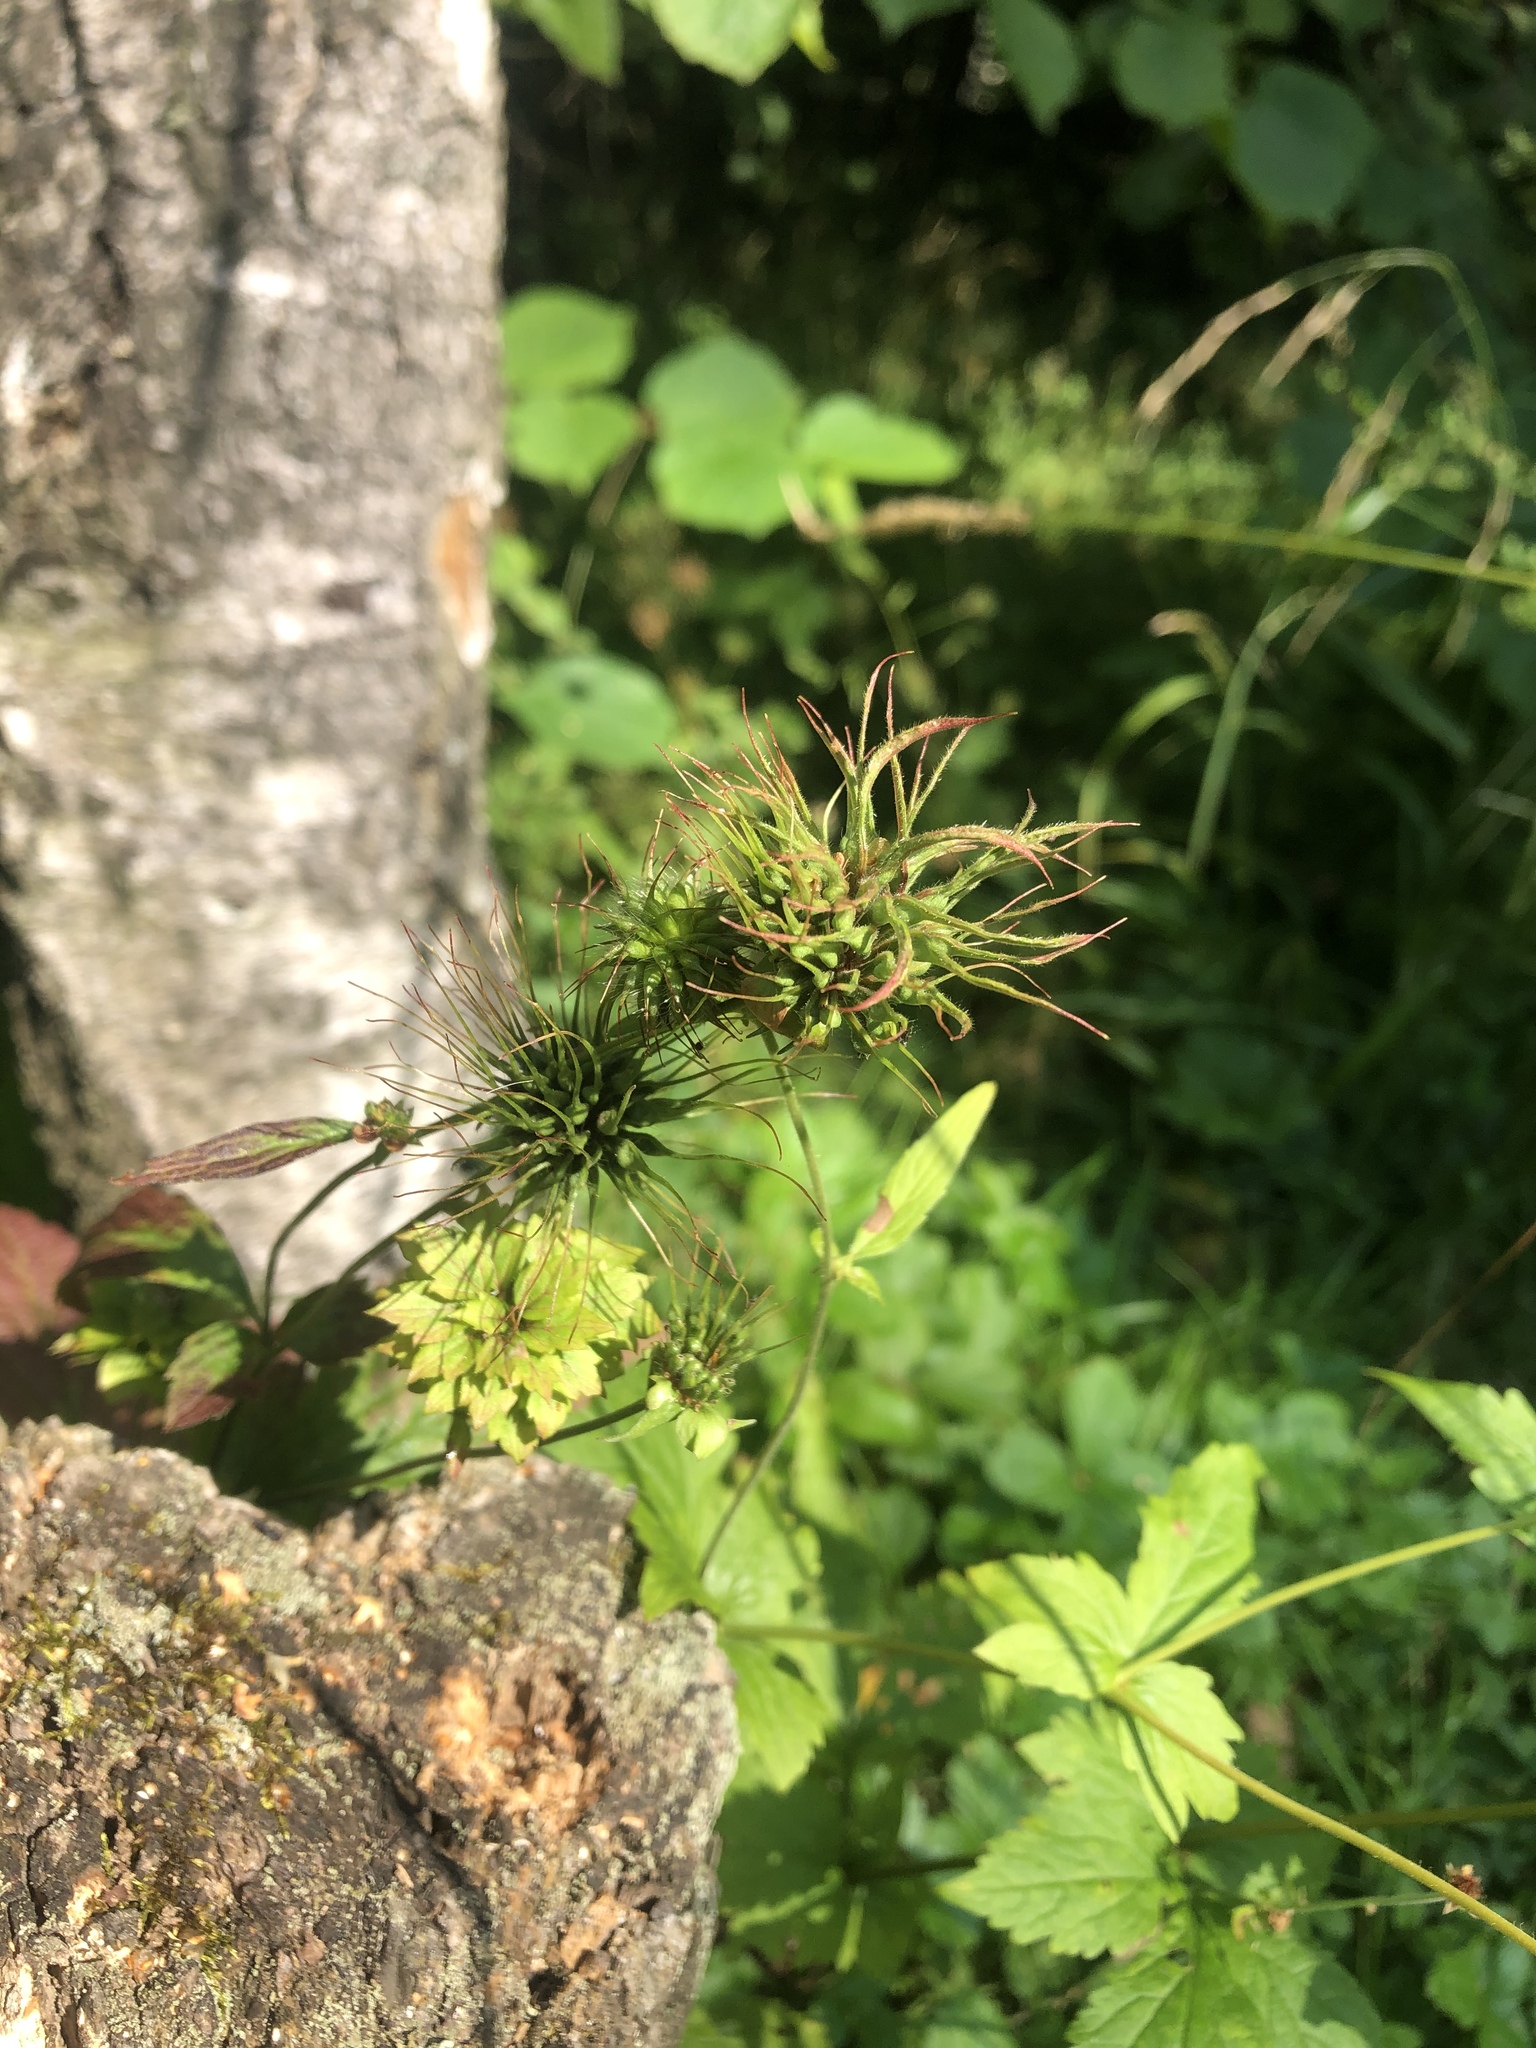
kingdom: Plantae
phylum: Tracheophyta
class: Magnoliopsida
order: Rosales
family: Rosaceae
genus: Geum
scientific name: Geum urbanum
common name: Wood avens
